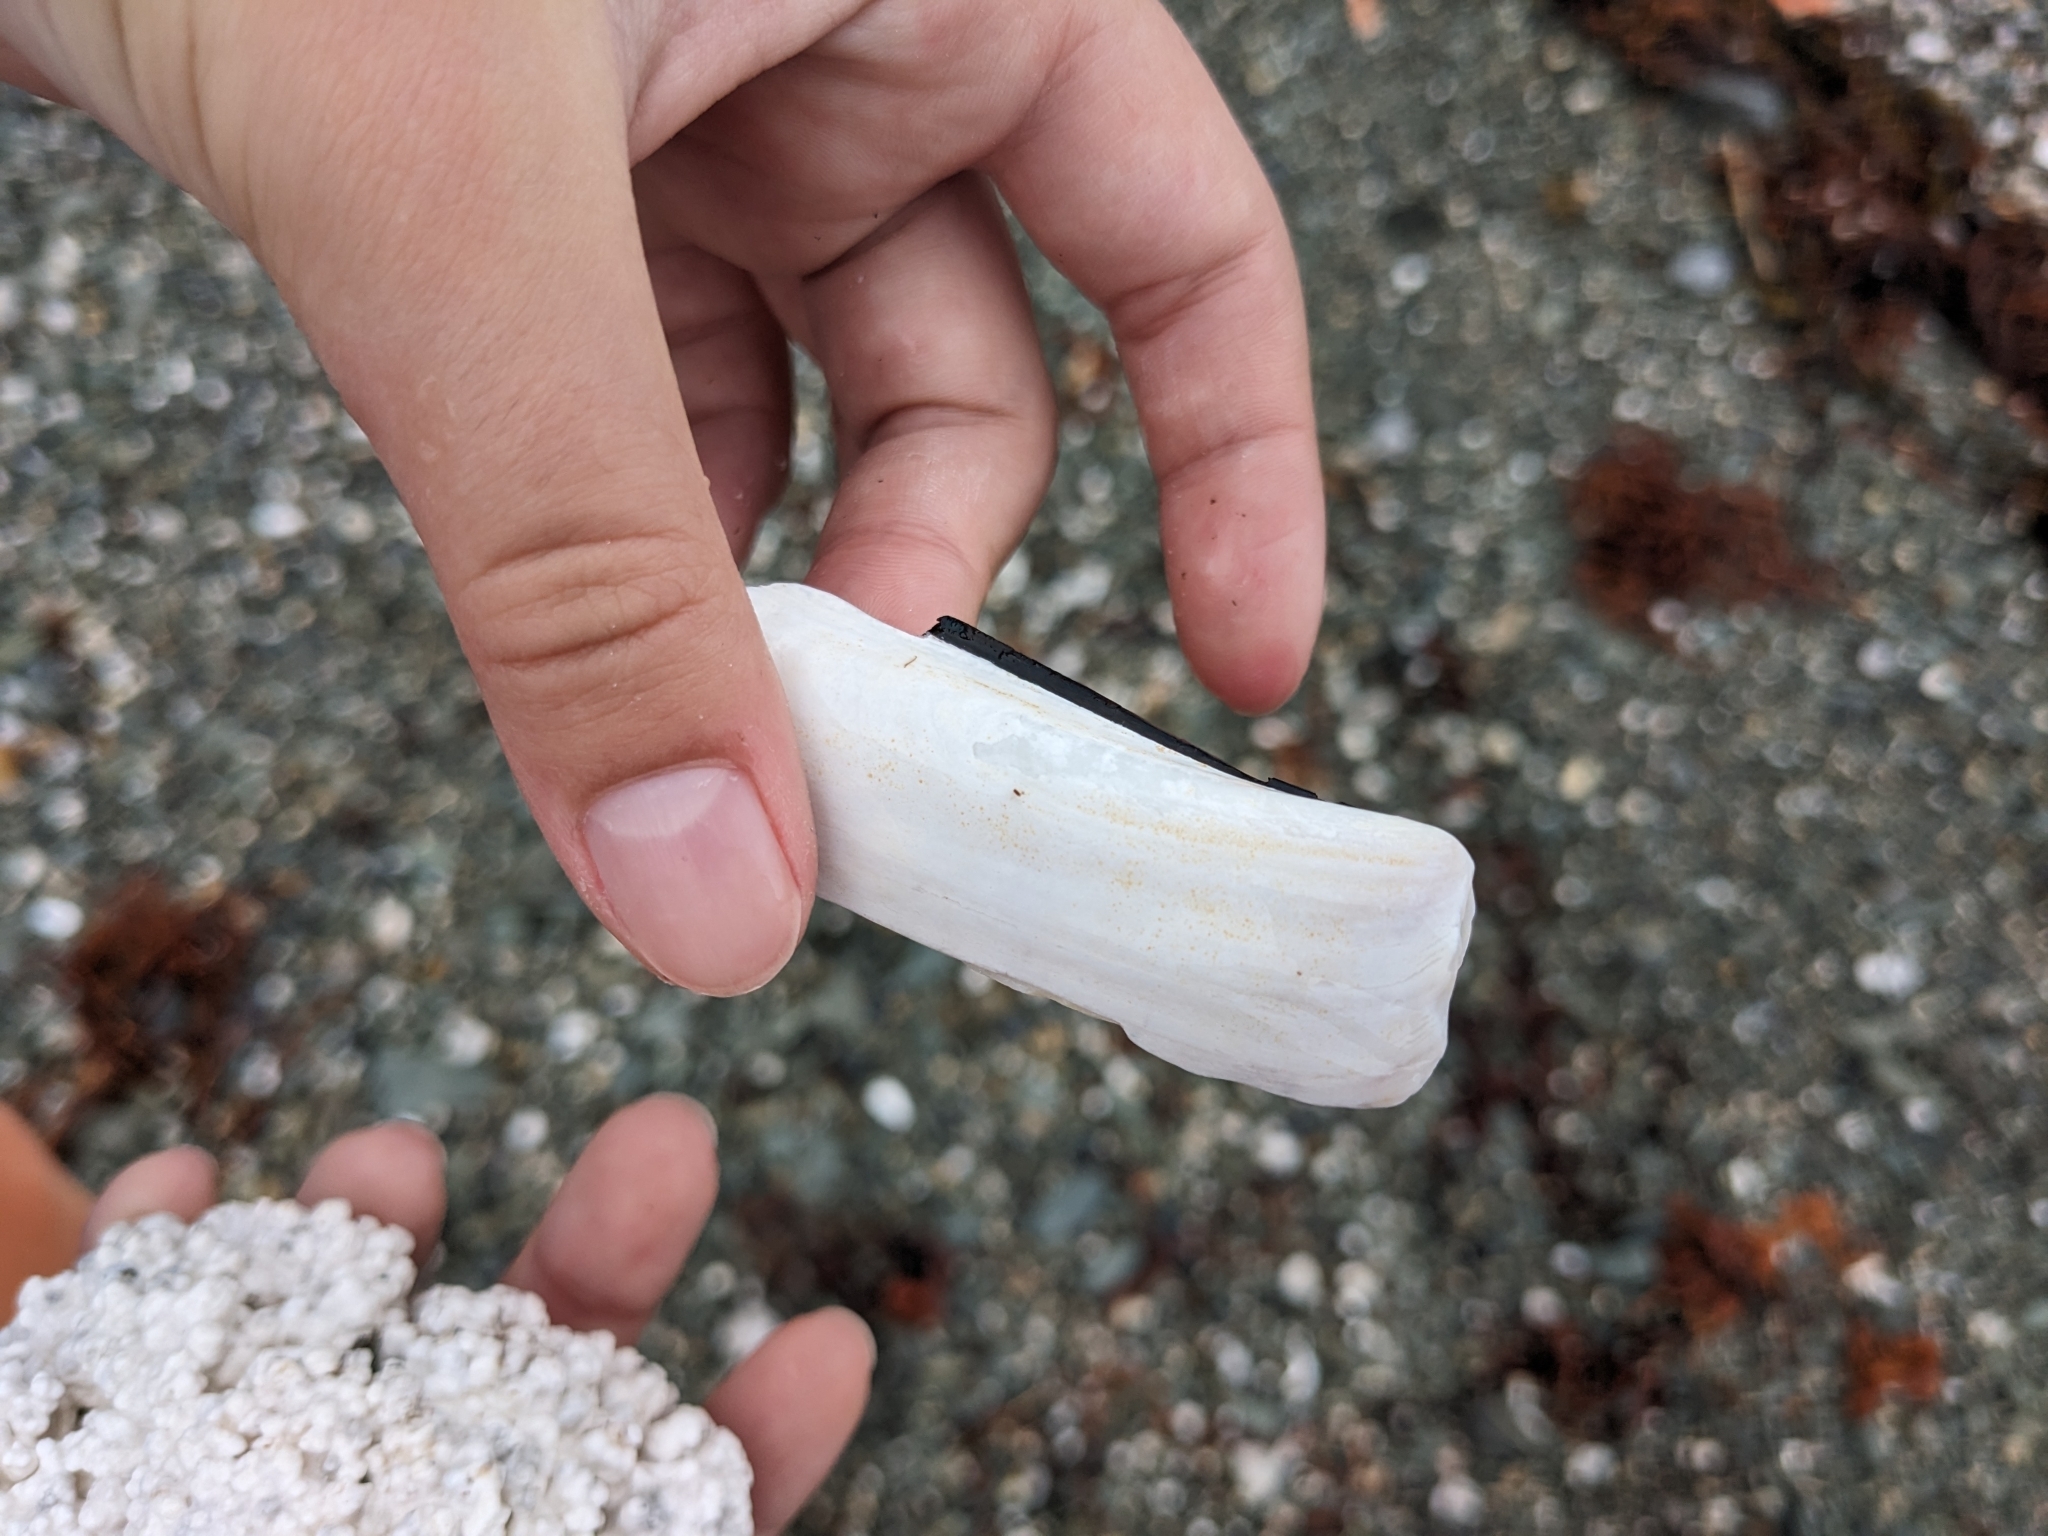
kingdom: Animalia
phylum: Mollusca
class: Bivalvia
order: Adapedonta
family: Pharidae
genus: Ensis
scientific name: Ensis leei
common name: American jack knife clam
